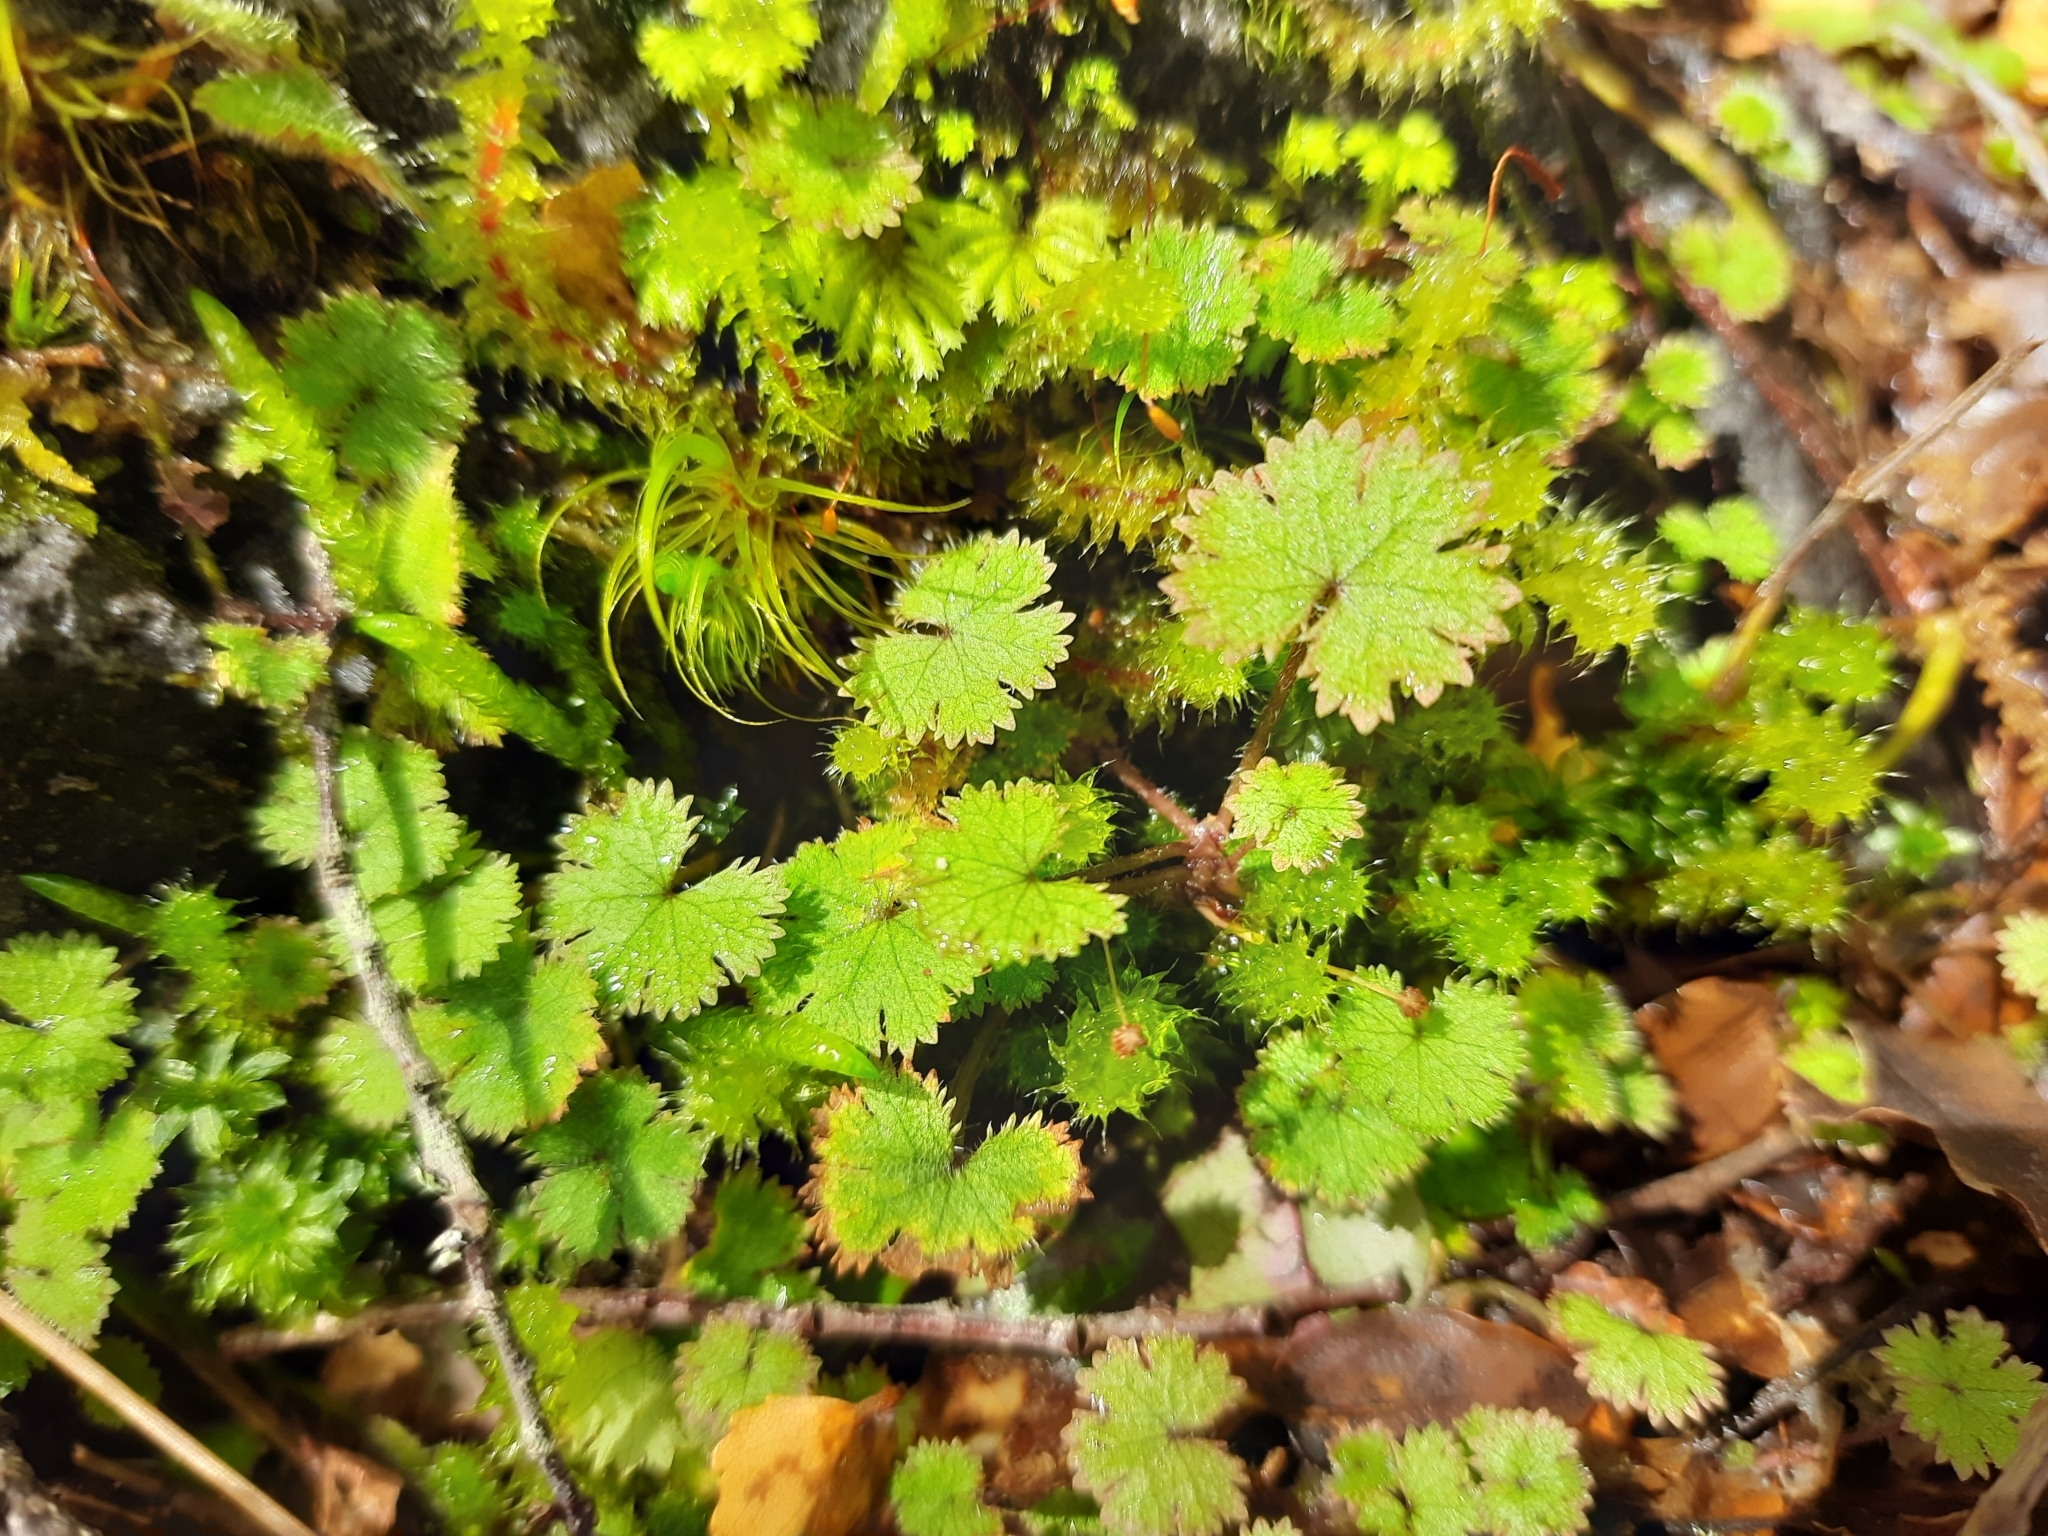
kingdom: Plantae
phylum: Tracheophyta
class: Magnoliopsida
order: Apiales
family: Araliaceae
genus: Hydrocotyle
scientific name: Hydrocotyle moschata
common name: Hairy pennywort
